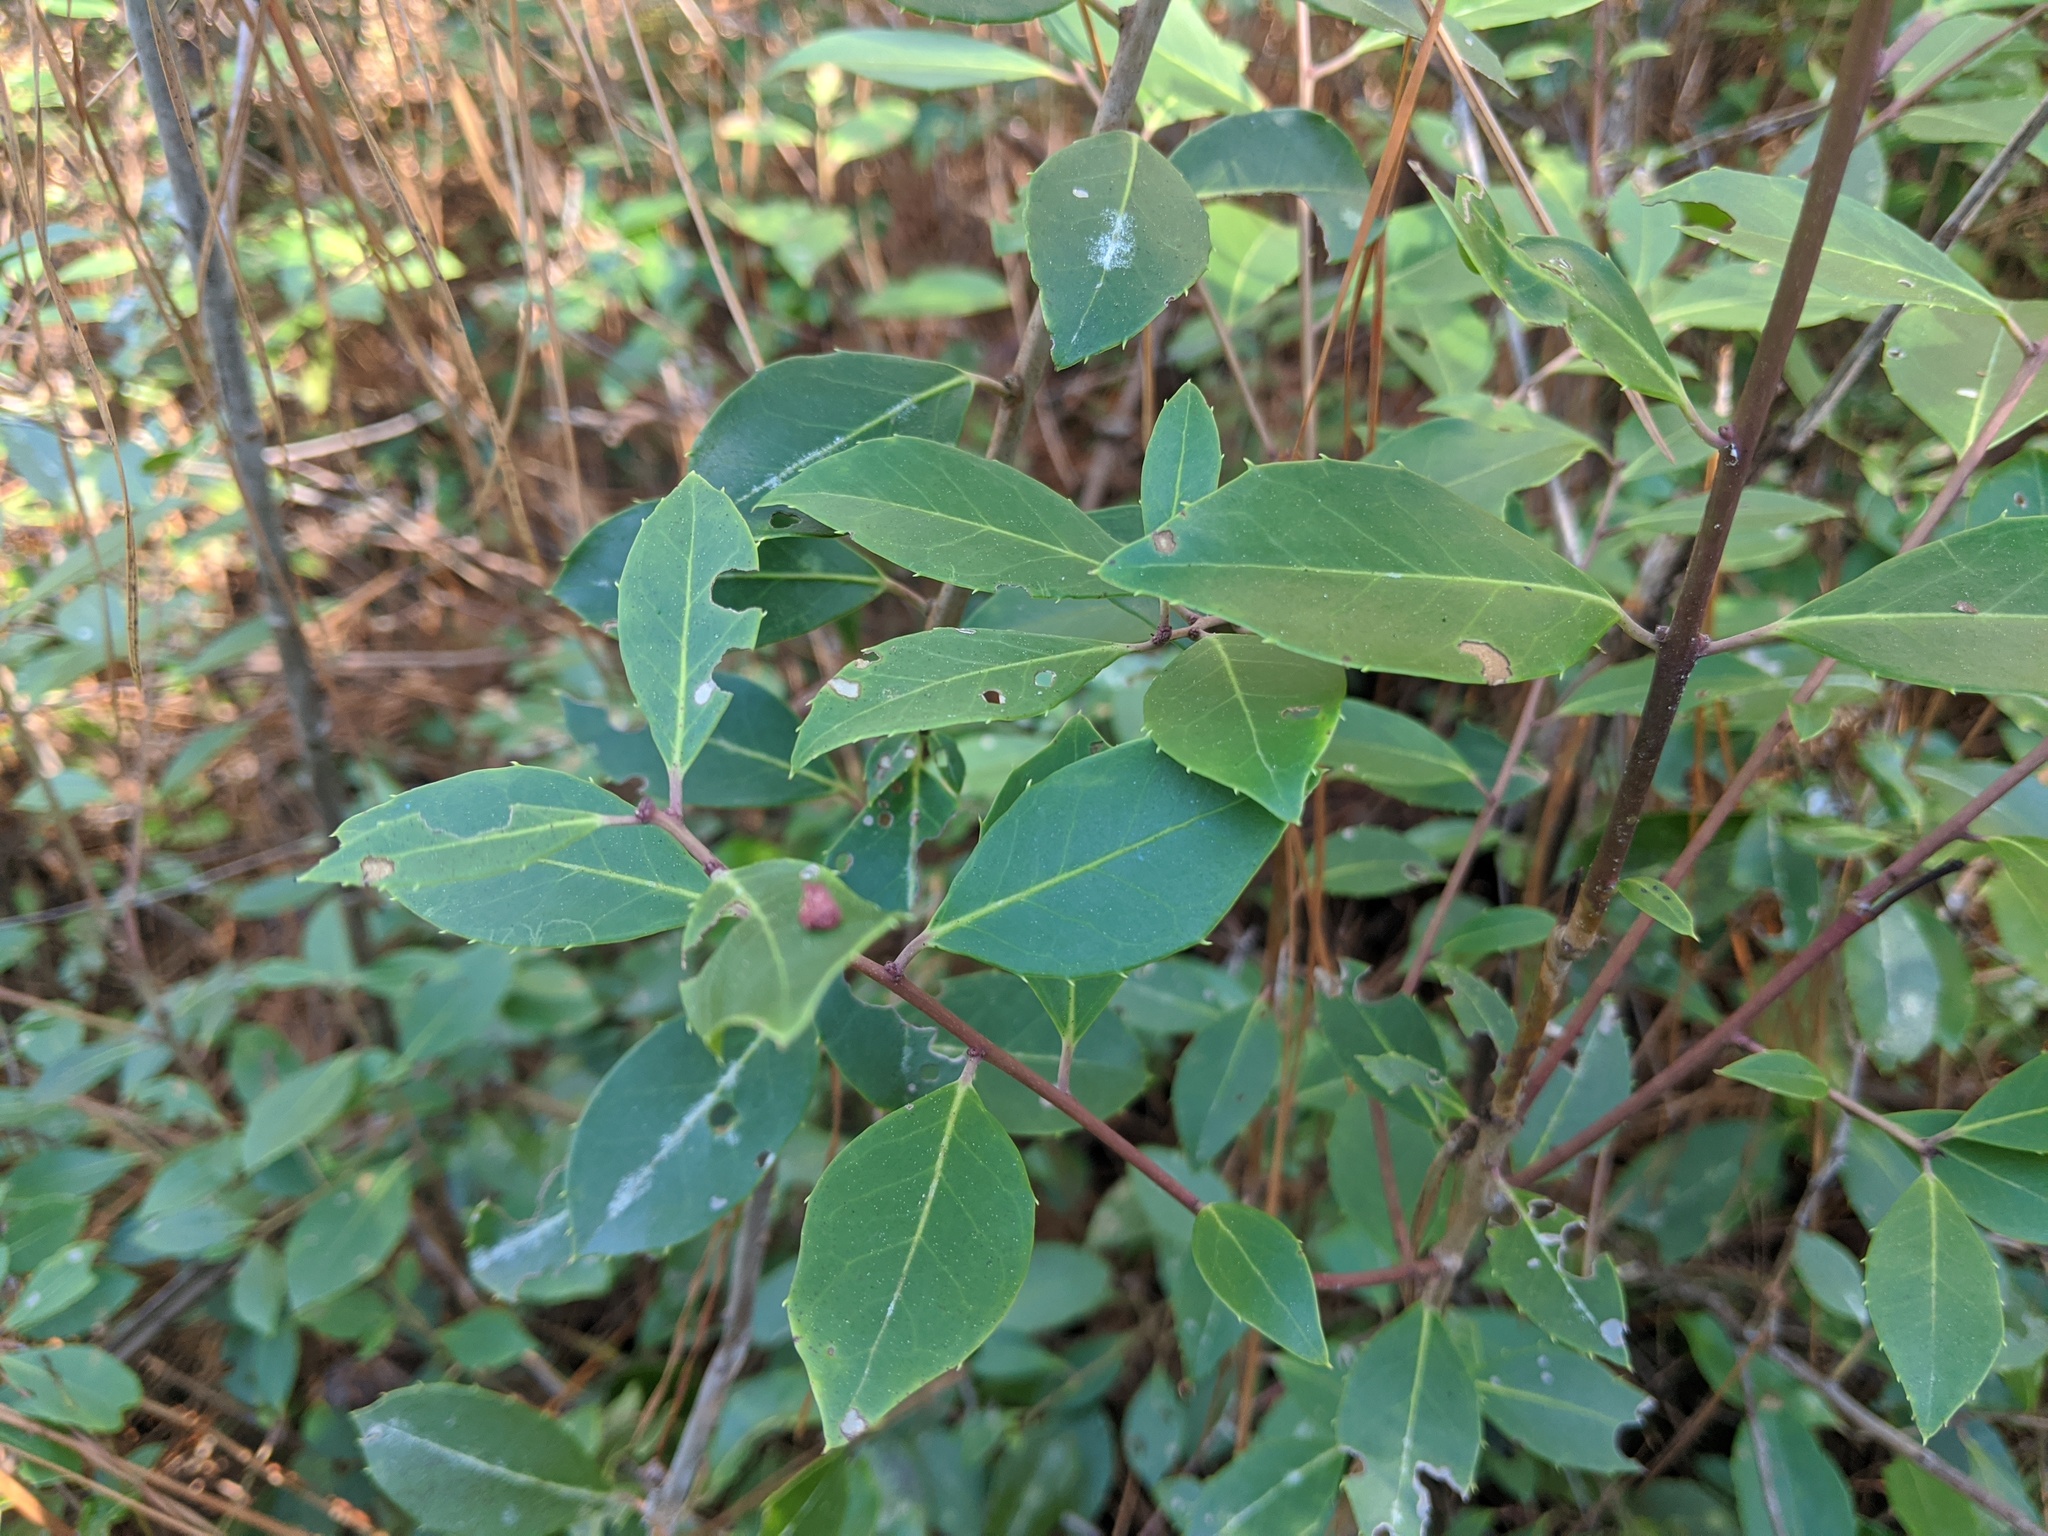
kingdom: Plantae
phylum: Tracheophyta
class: Magnoliopsida
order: Aquifoliales
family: Aquifoliaceae
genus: Ilex
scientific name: Ilex coriacea
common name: Sweet gallberry
